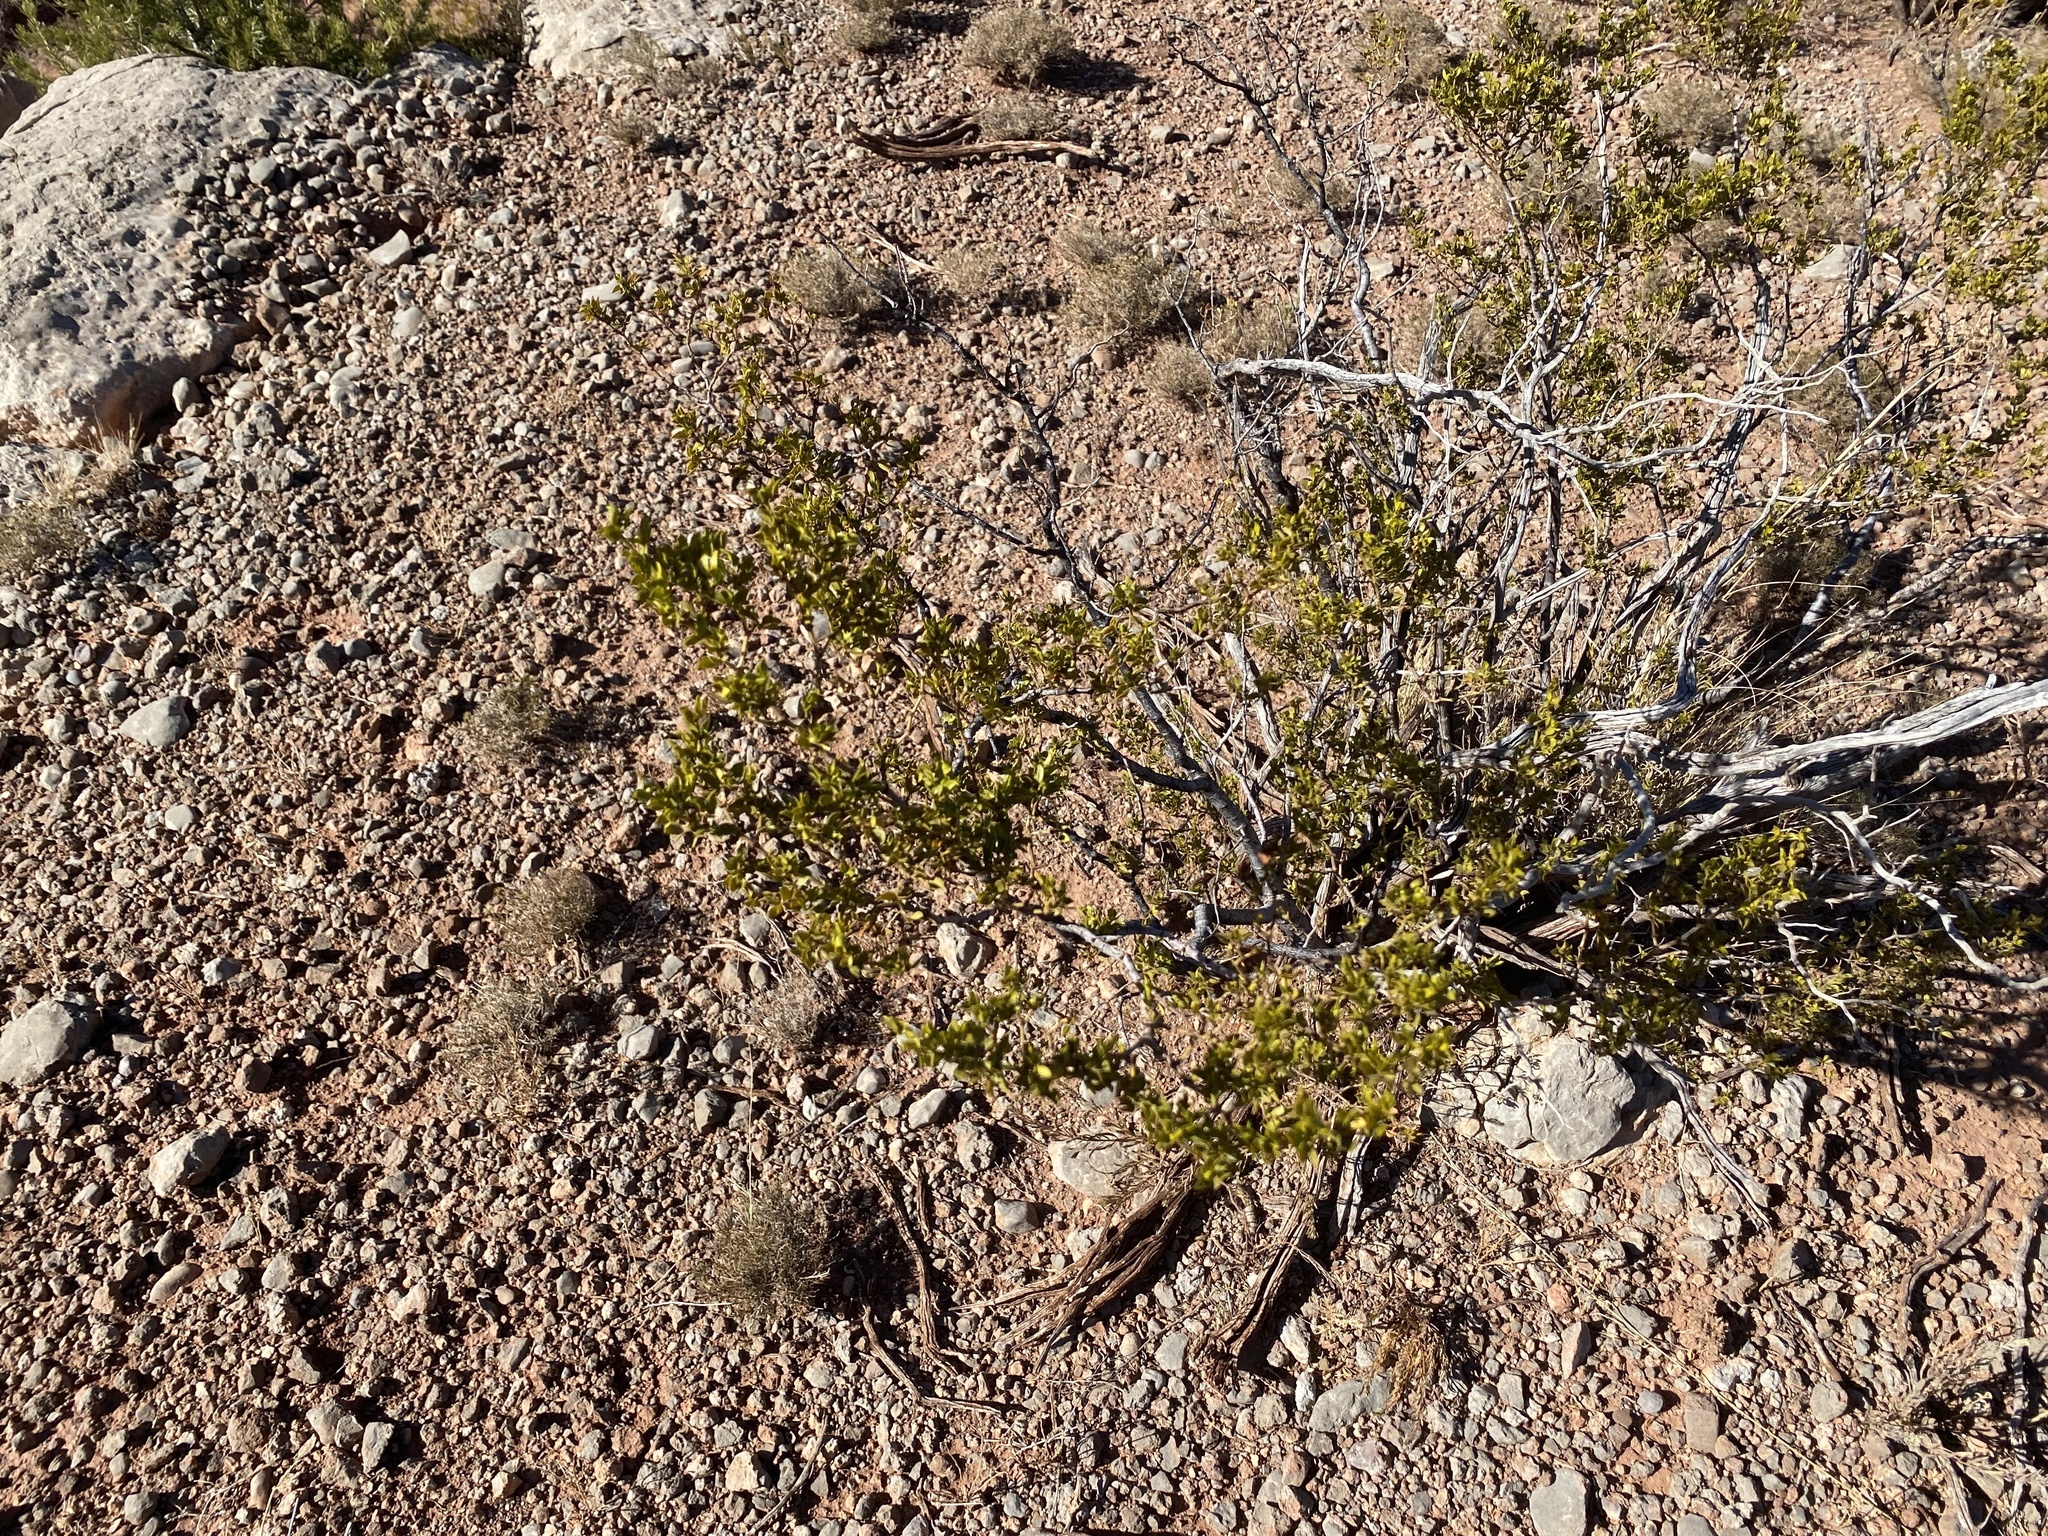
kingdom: Plantae
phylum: Tracheophyta
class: Magnoliopsida
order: Zygophyllales
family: Zygophyllaceae
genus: Larrea
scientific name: Larrea tridentata
